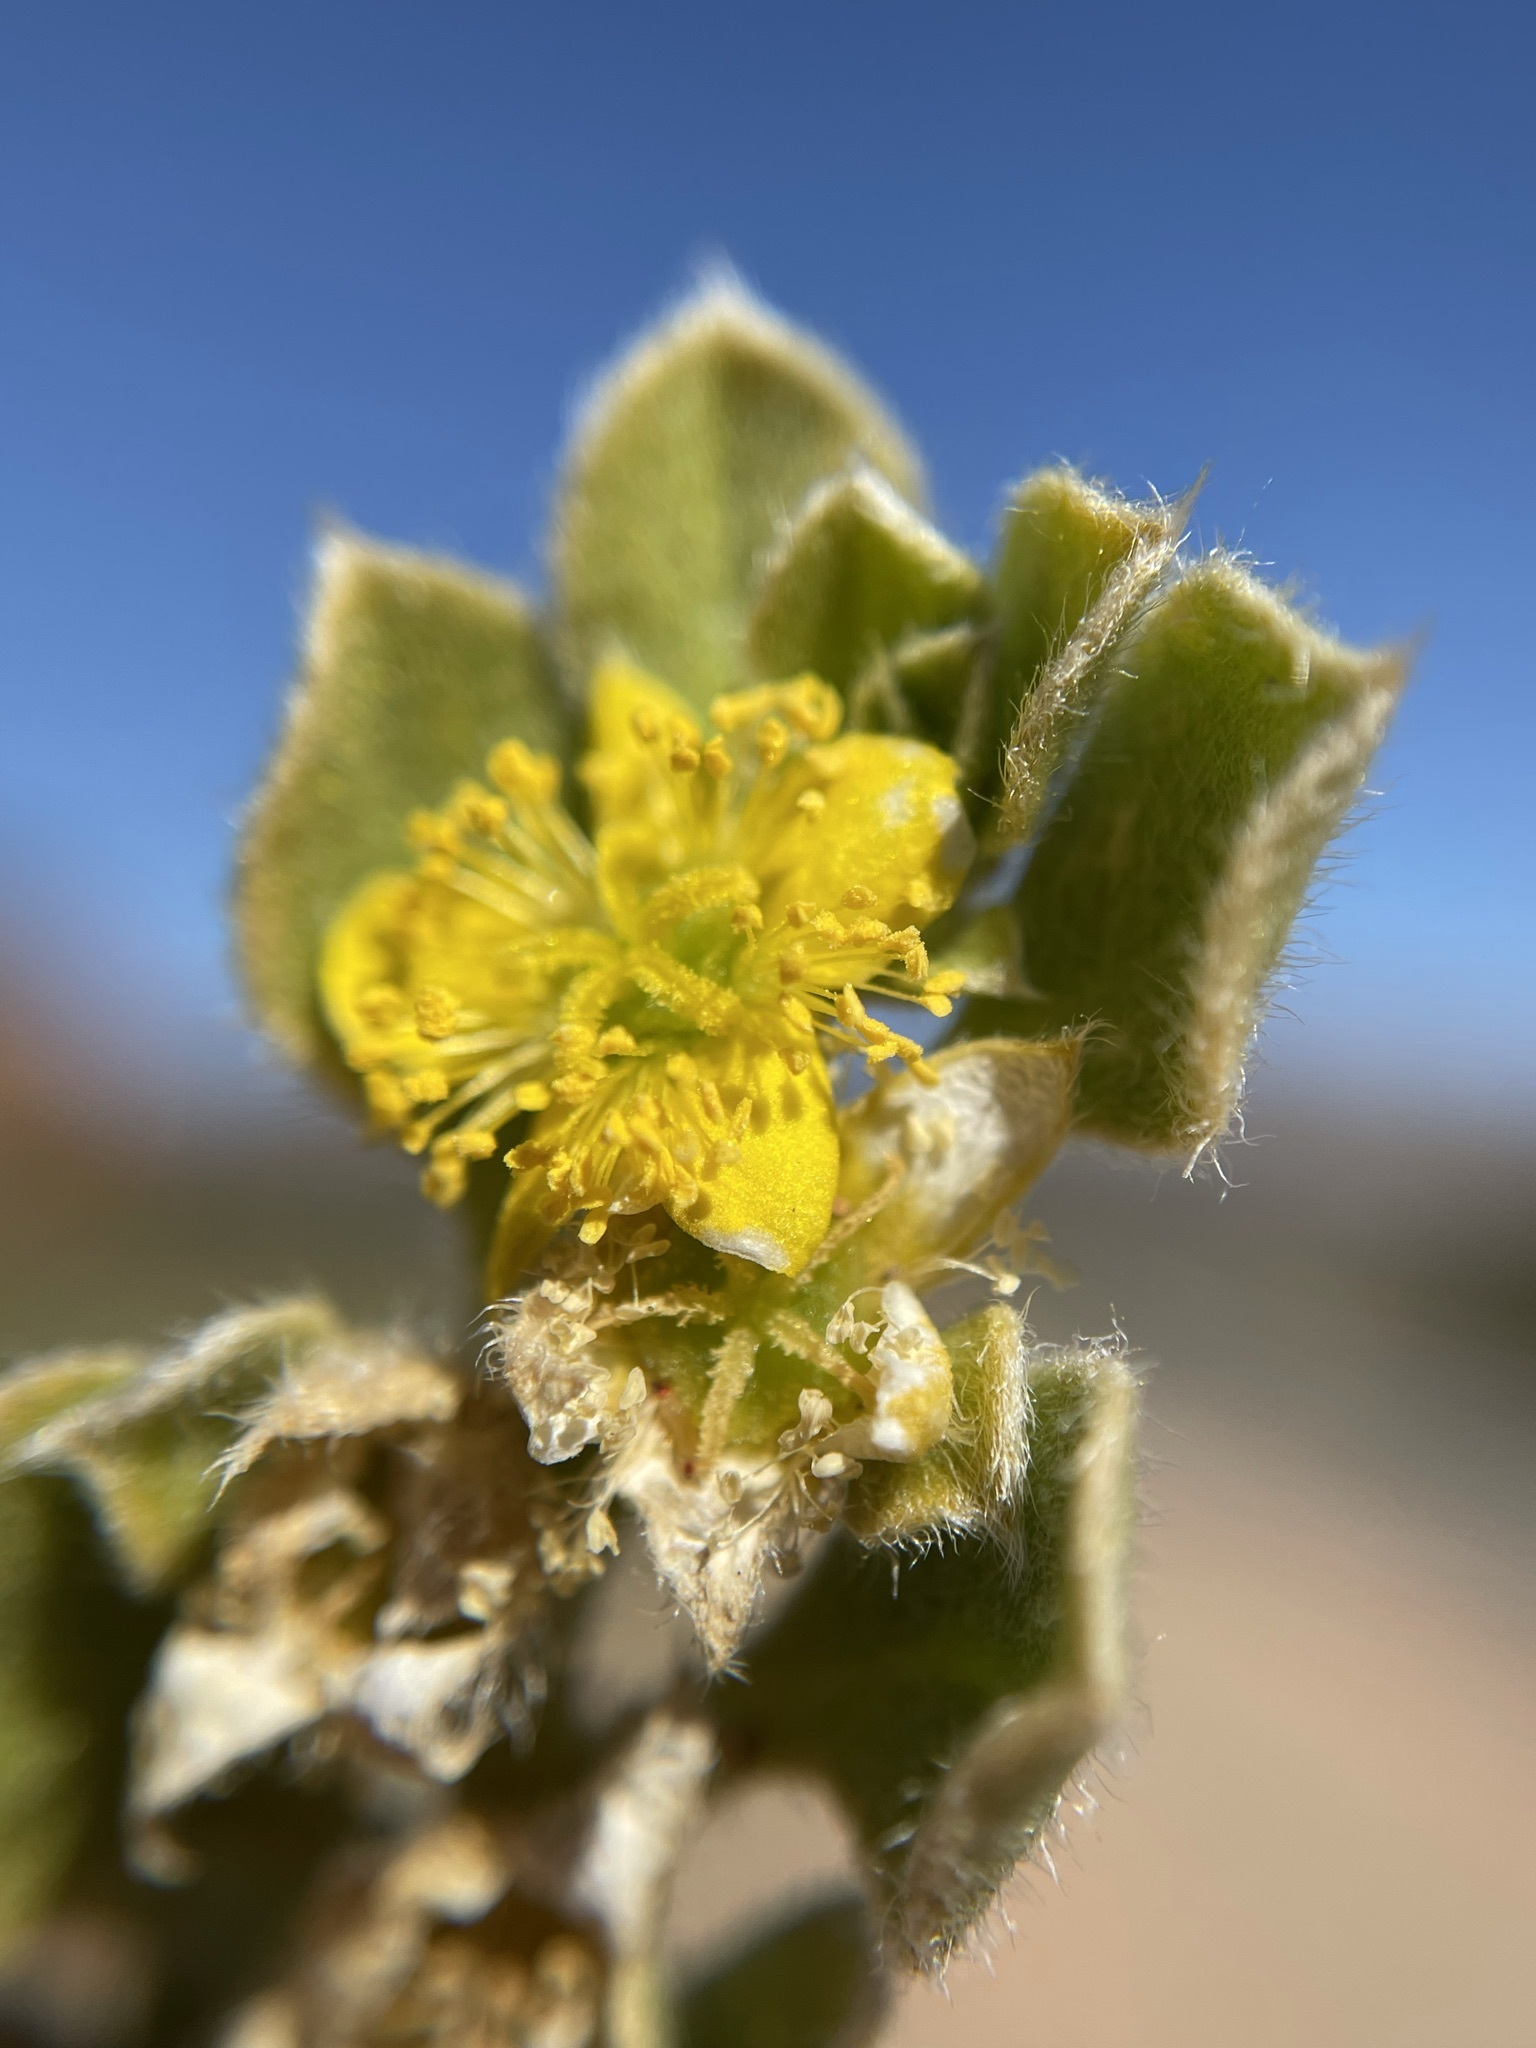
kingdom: Plantae
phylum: Tracheophyta
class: Magnoliopsida
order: Caryophyllales
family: Aizoaceae
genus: Aizoon
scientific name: Aizoon glinoides
